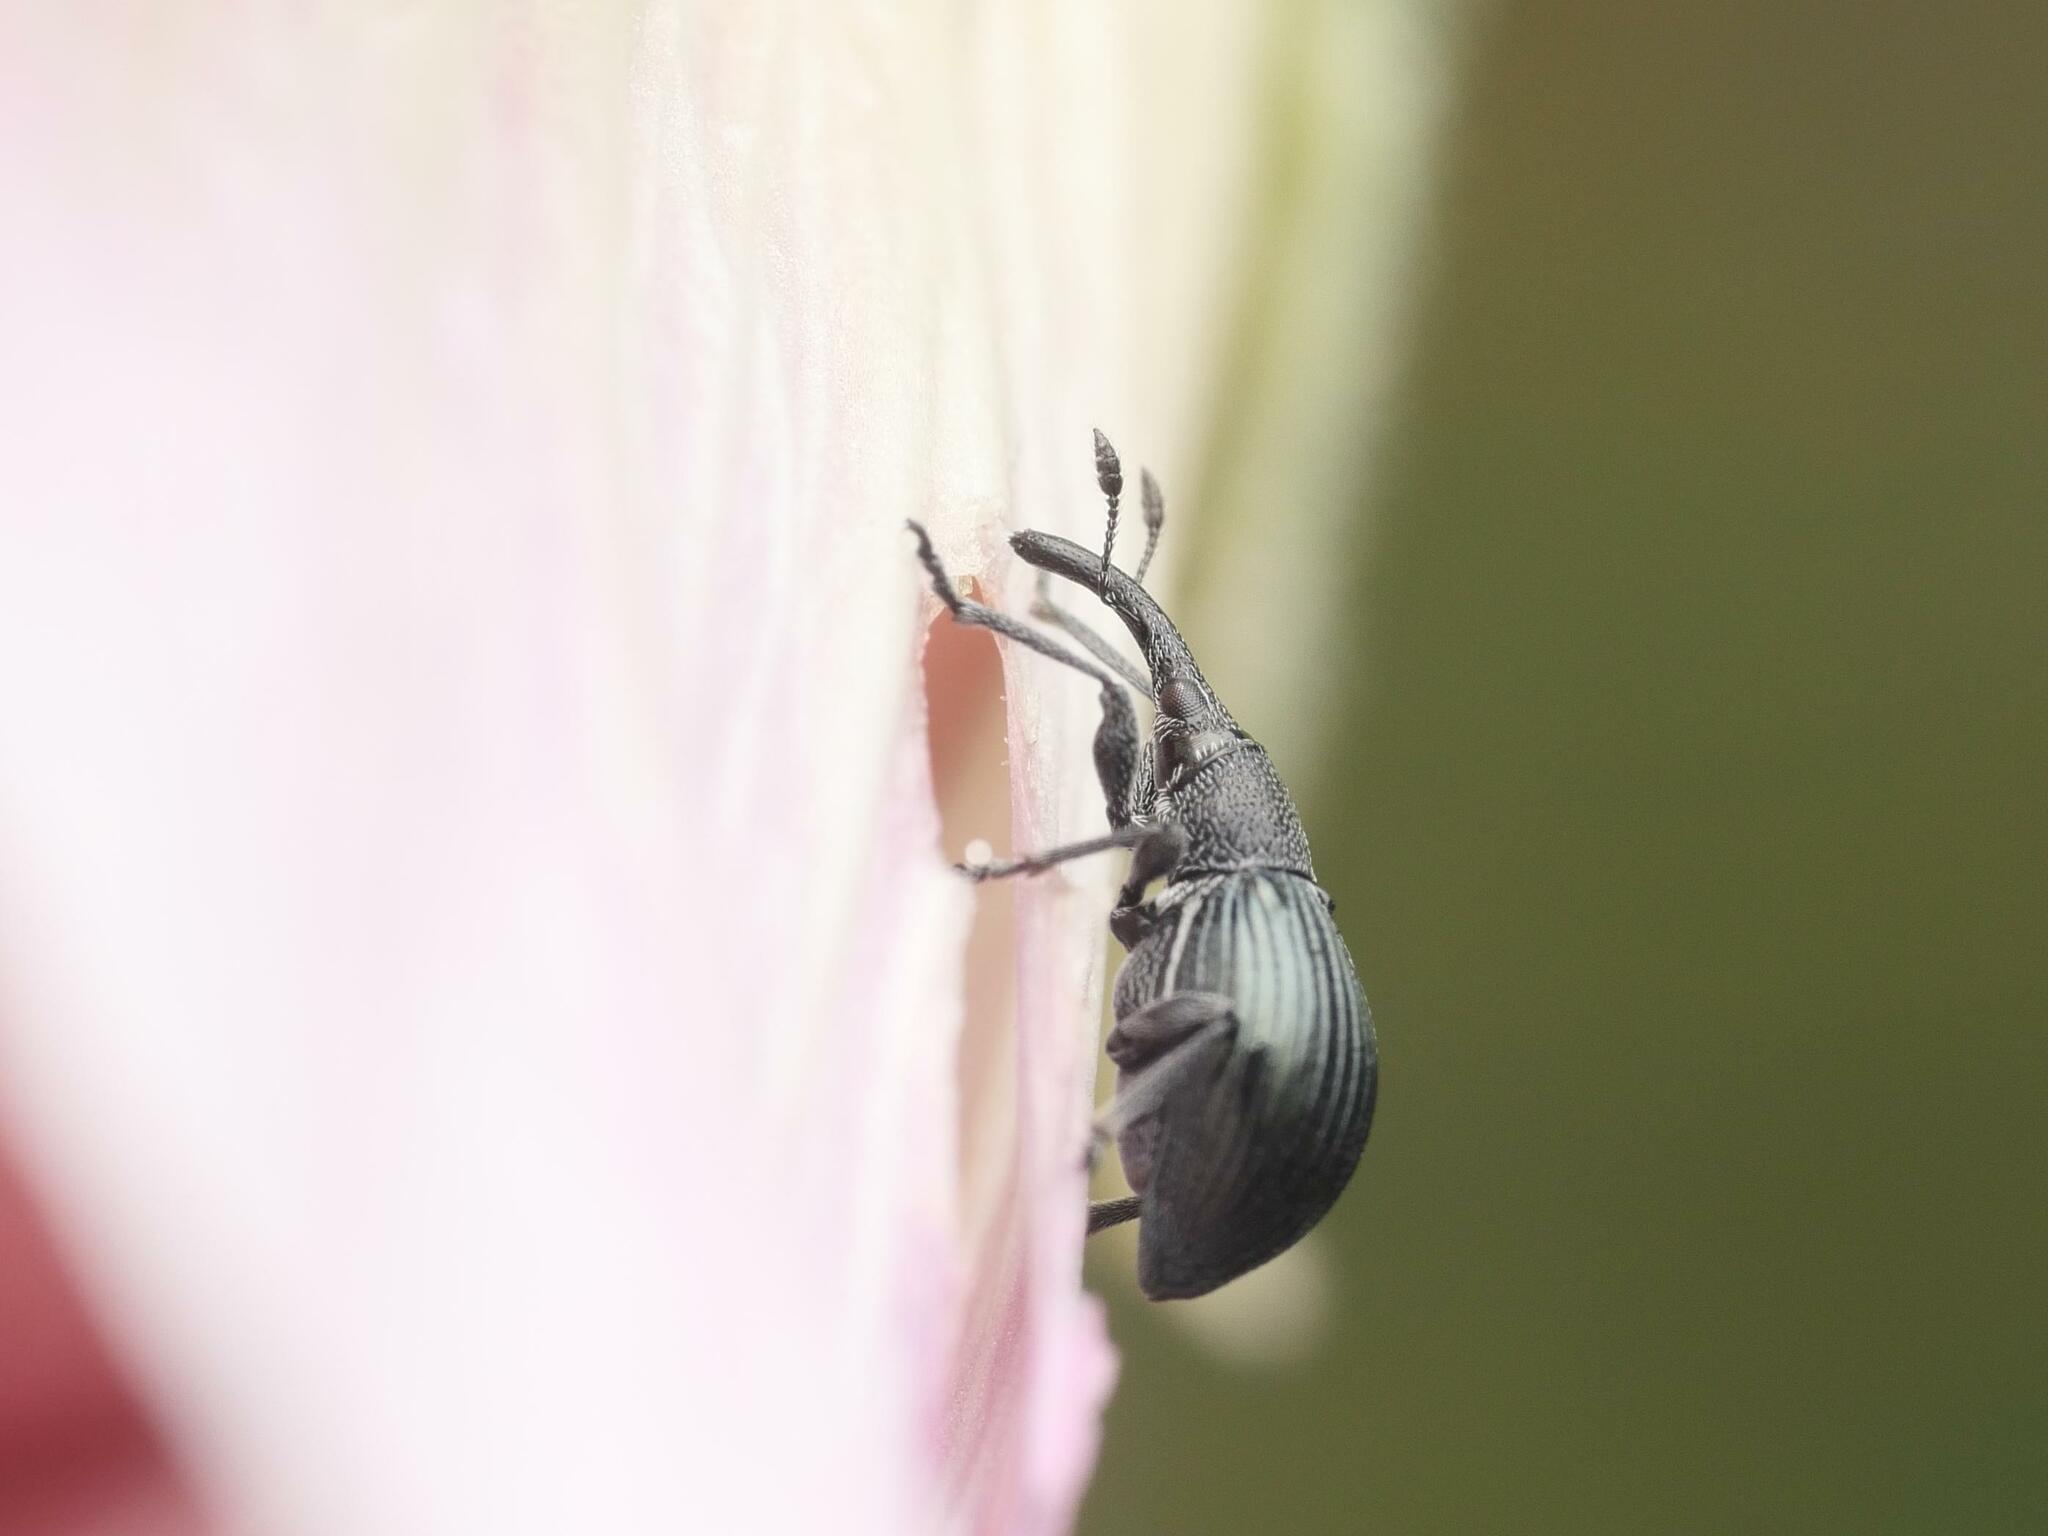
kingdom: Animalia
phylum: Arthropoda
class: Insecta
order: Coleoptera
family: Apionidae
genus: Aspidapion
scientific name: Aspidapion radiolus
